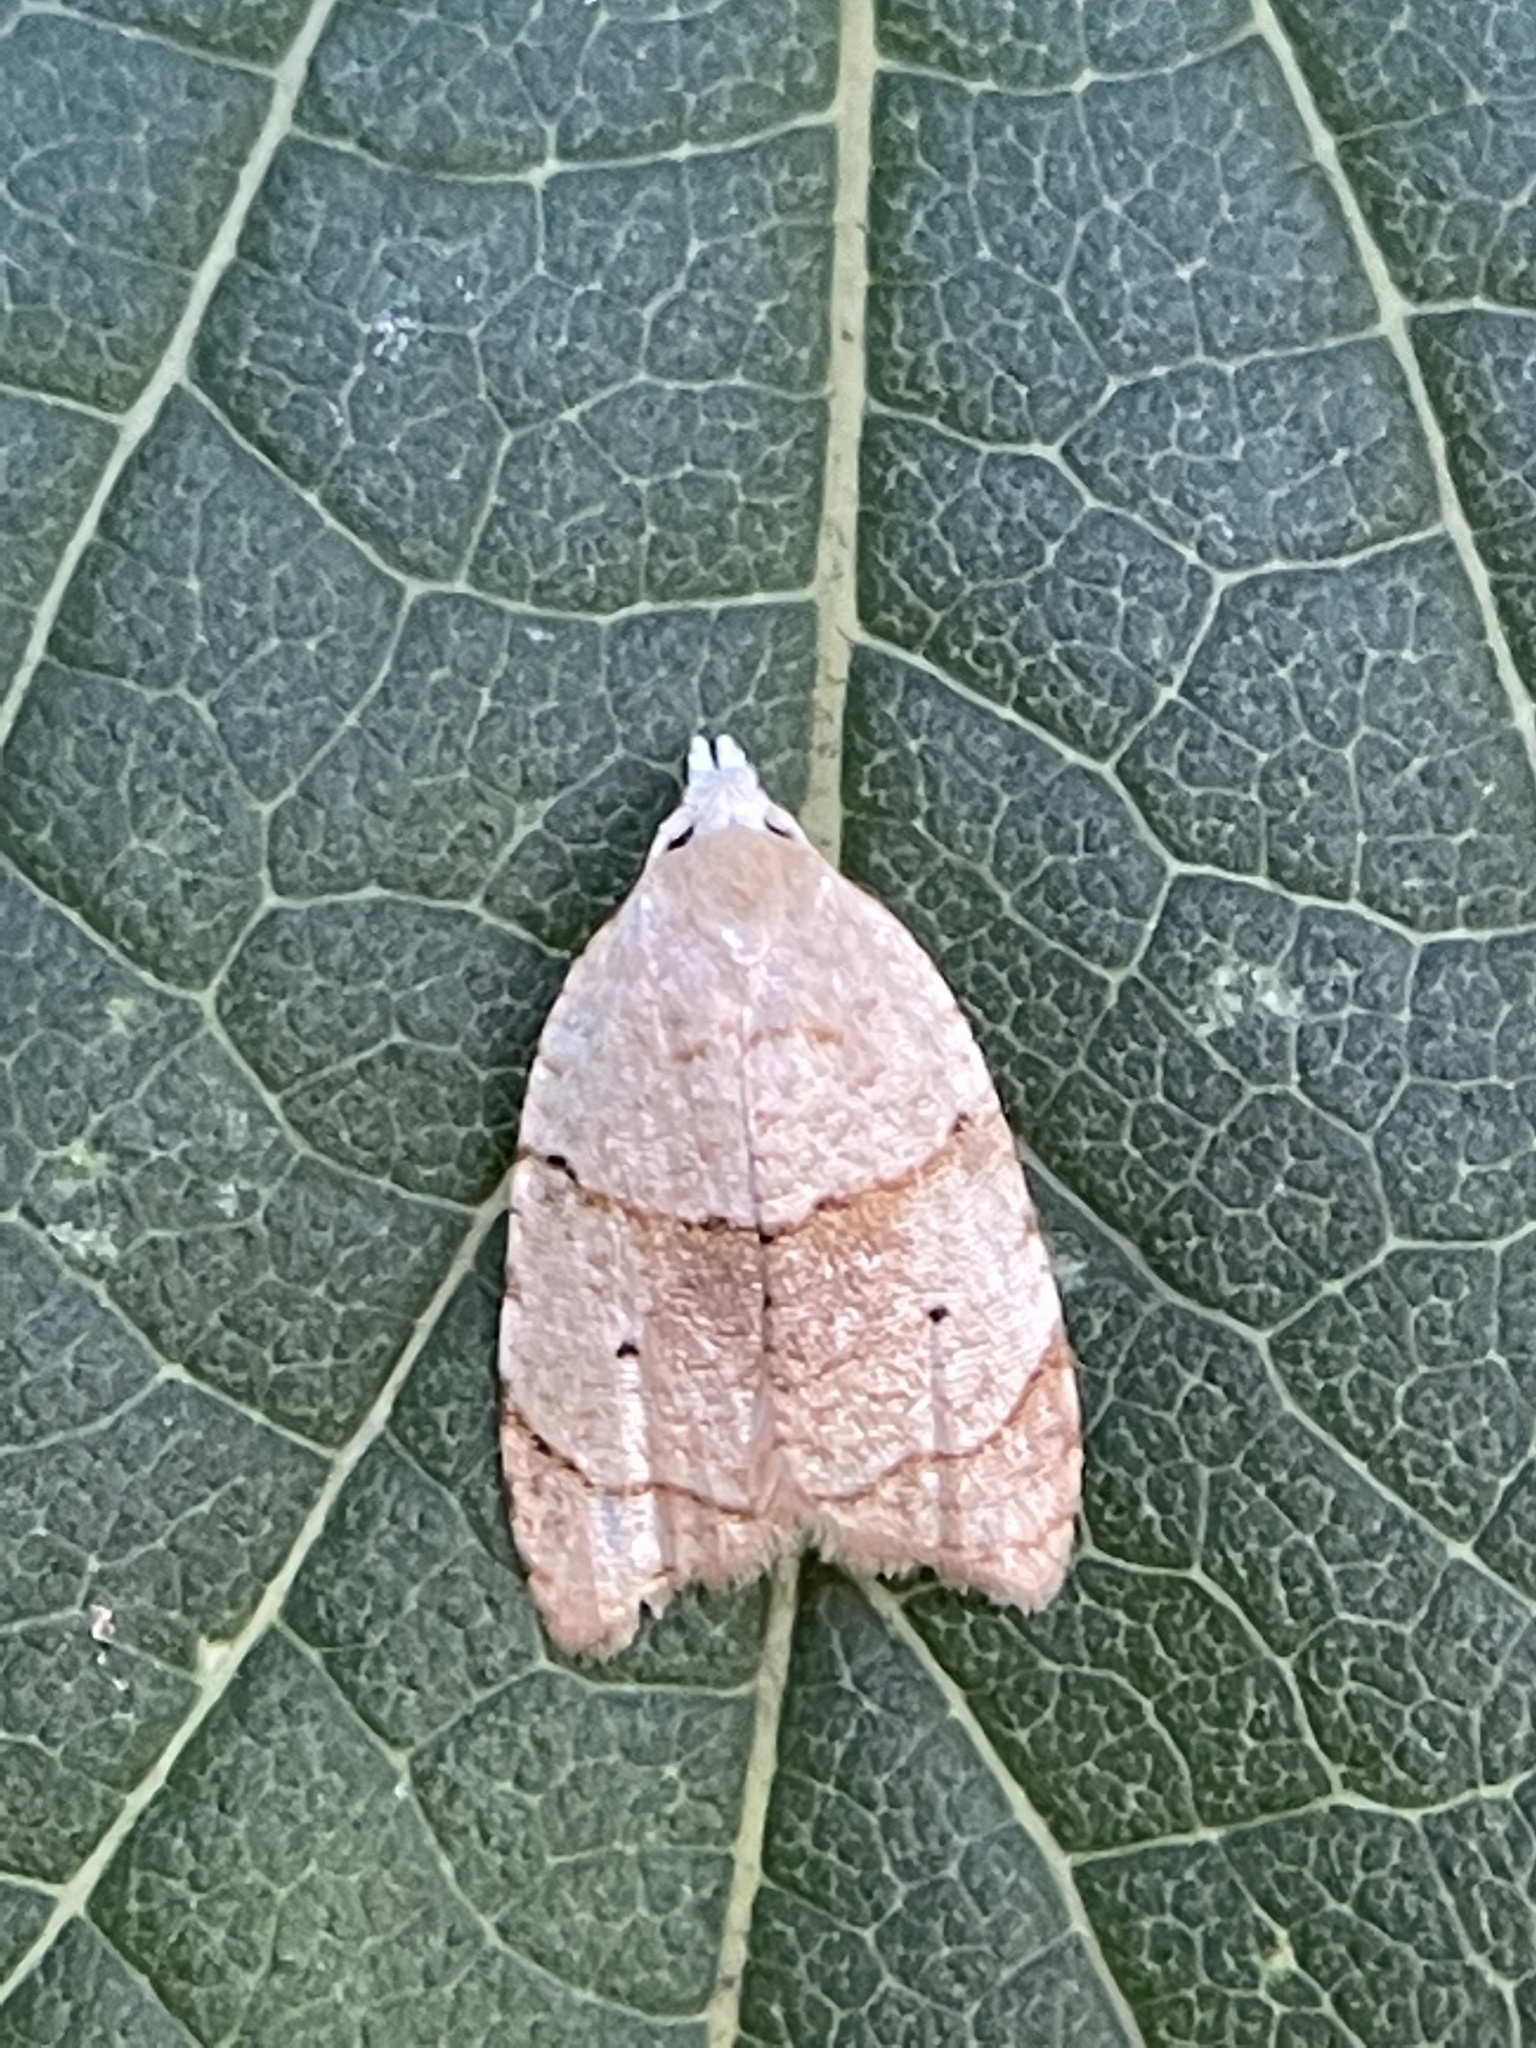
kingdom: Animalia
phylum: Arthropoda
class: Insecta
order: Lepidoptera
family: Tortricidae
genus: Coelostathma
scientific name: Coelostathma discopunctana
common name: Batman moth
